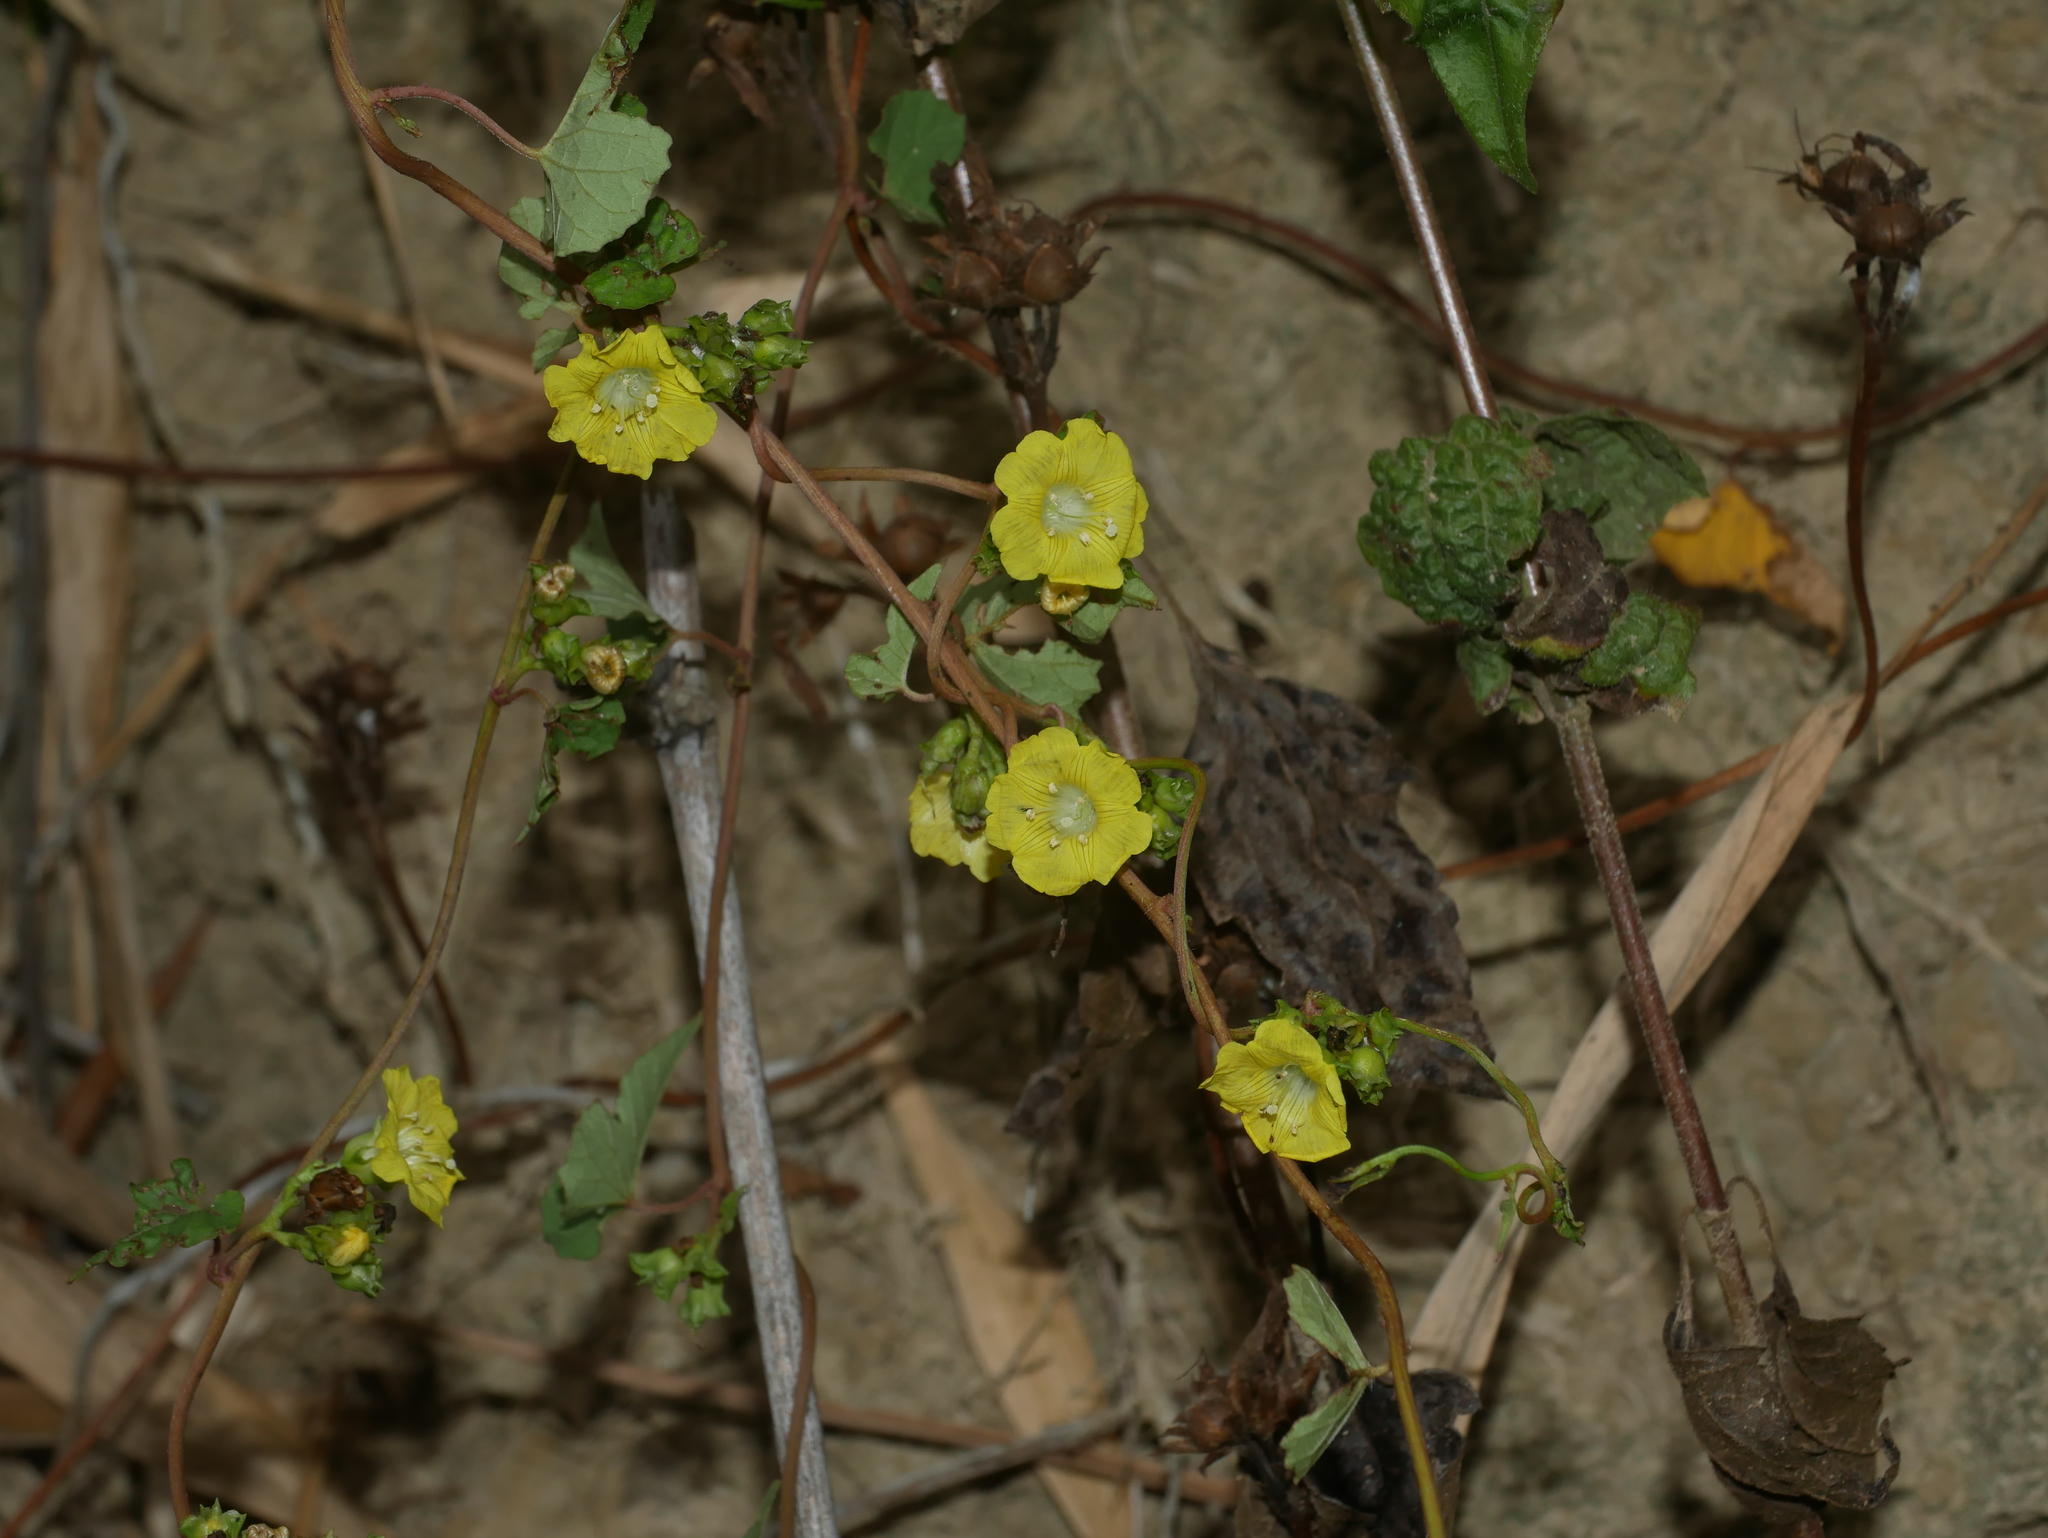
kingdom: Plantae
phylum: Tracheophyta
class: Magnoliopsida
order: Solanales
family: Convolvulaceae
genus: Merremia
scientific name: Merremia hederacea
